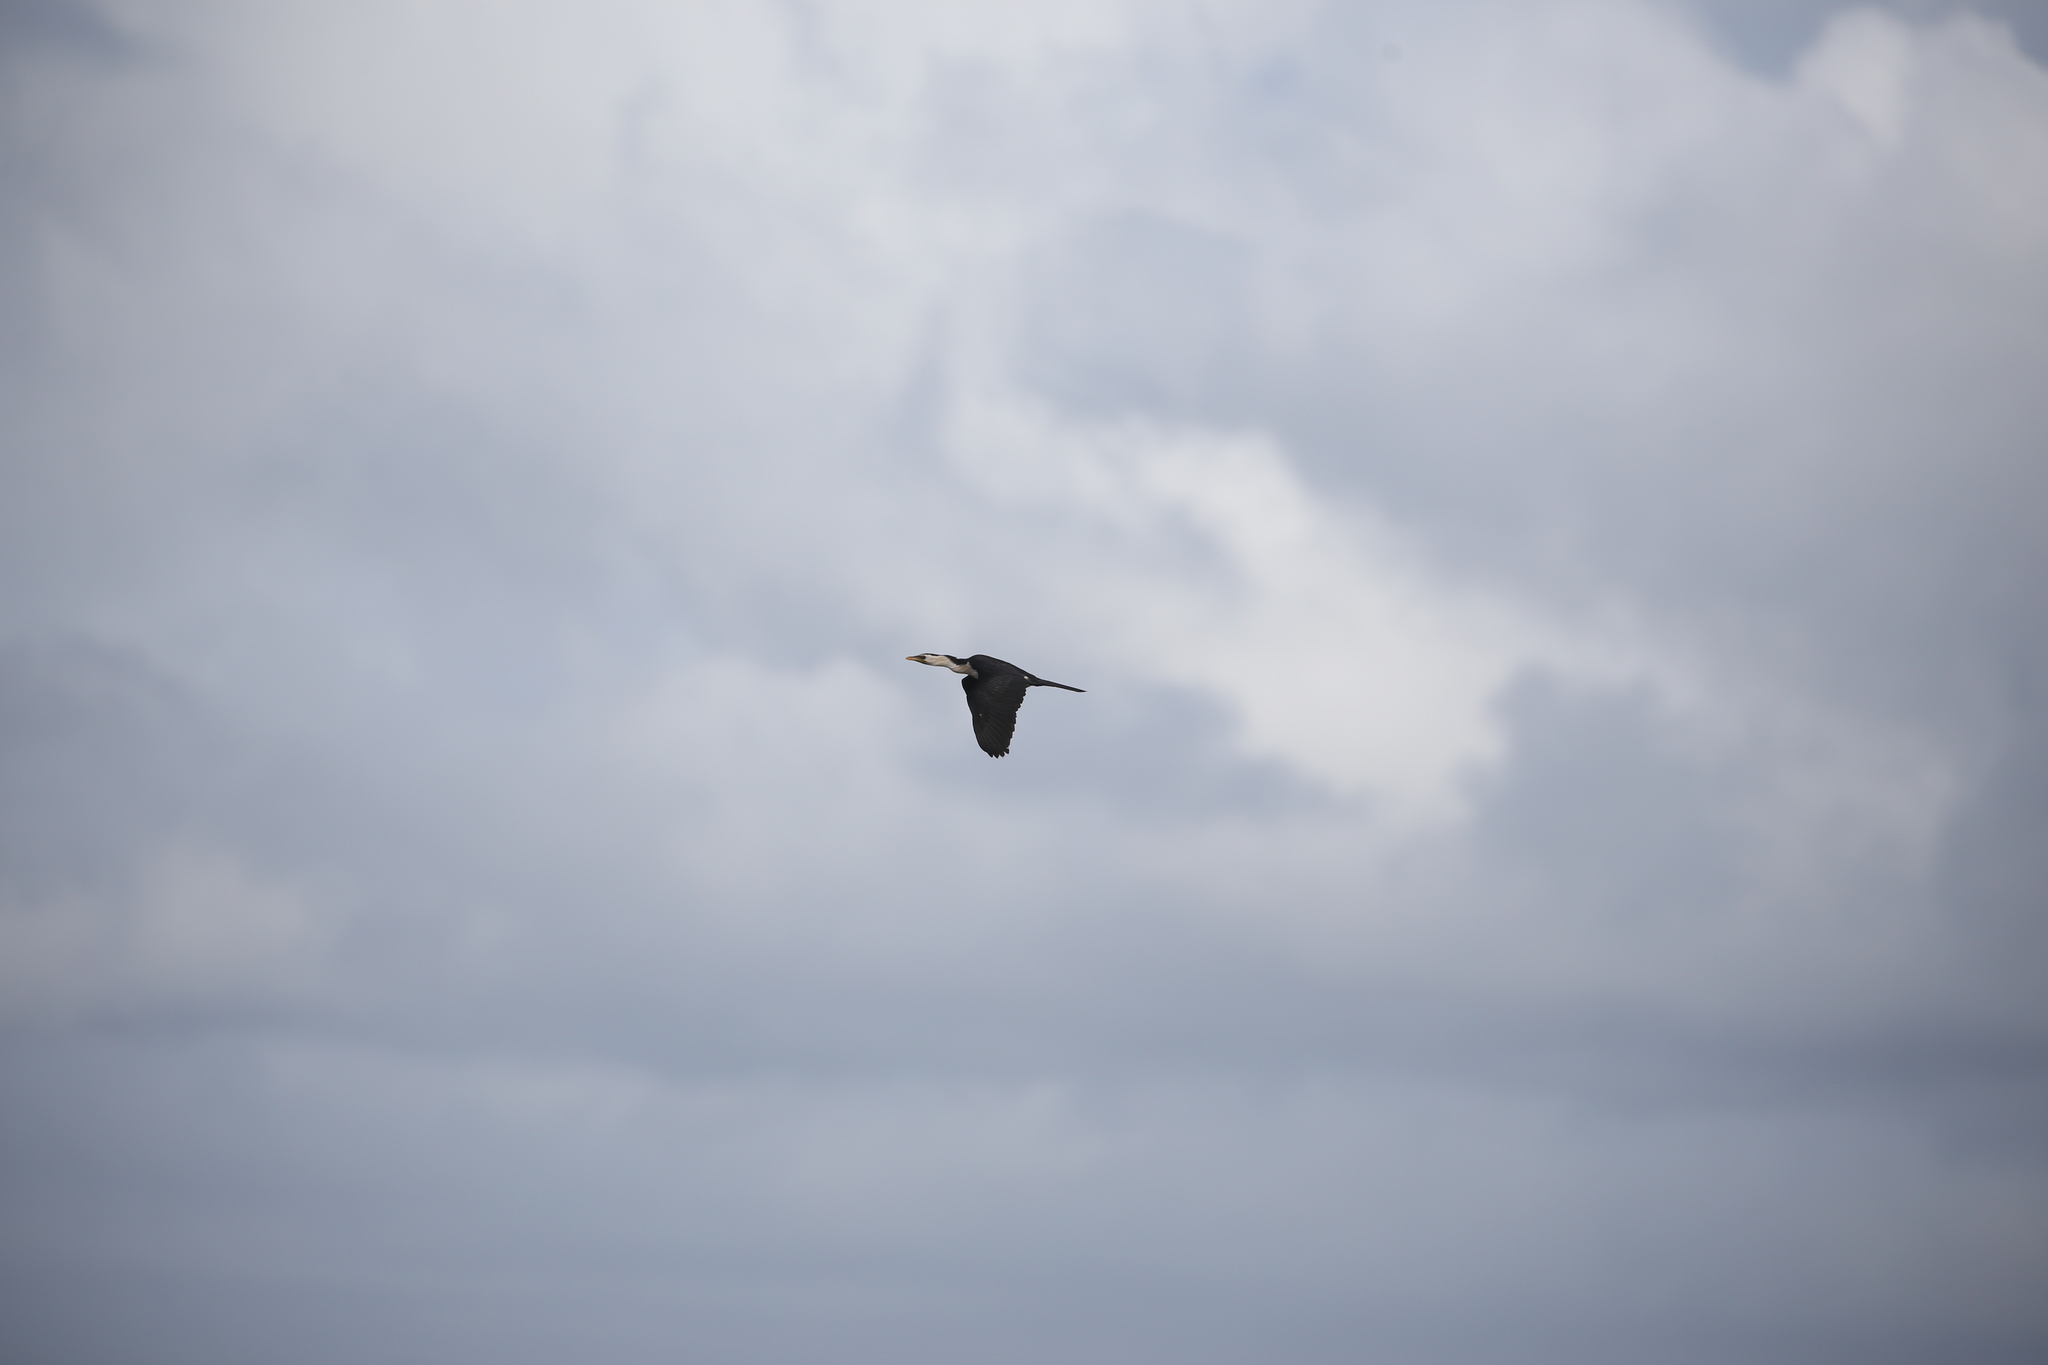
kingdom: Animalia
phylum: Chordata
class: Aves
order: Suliformes
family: Phalacrocoracidae
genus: Microcarbo
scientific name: Microcarbo melanoleucos
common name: Little pied cormorant
